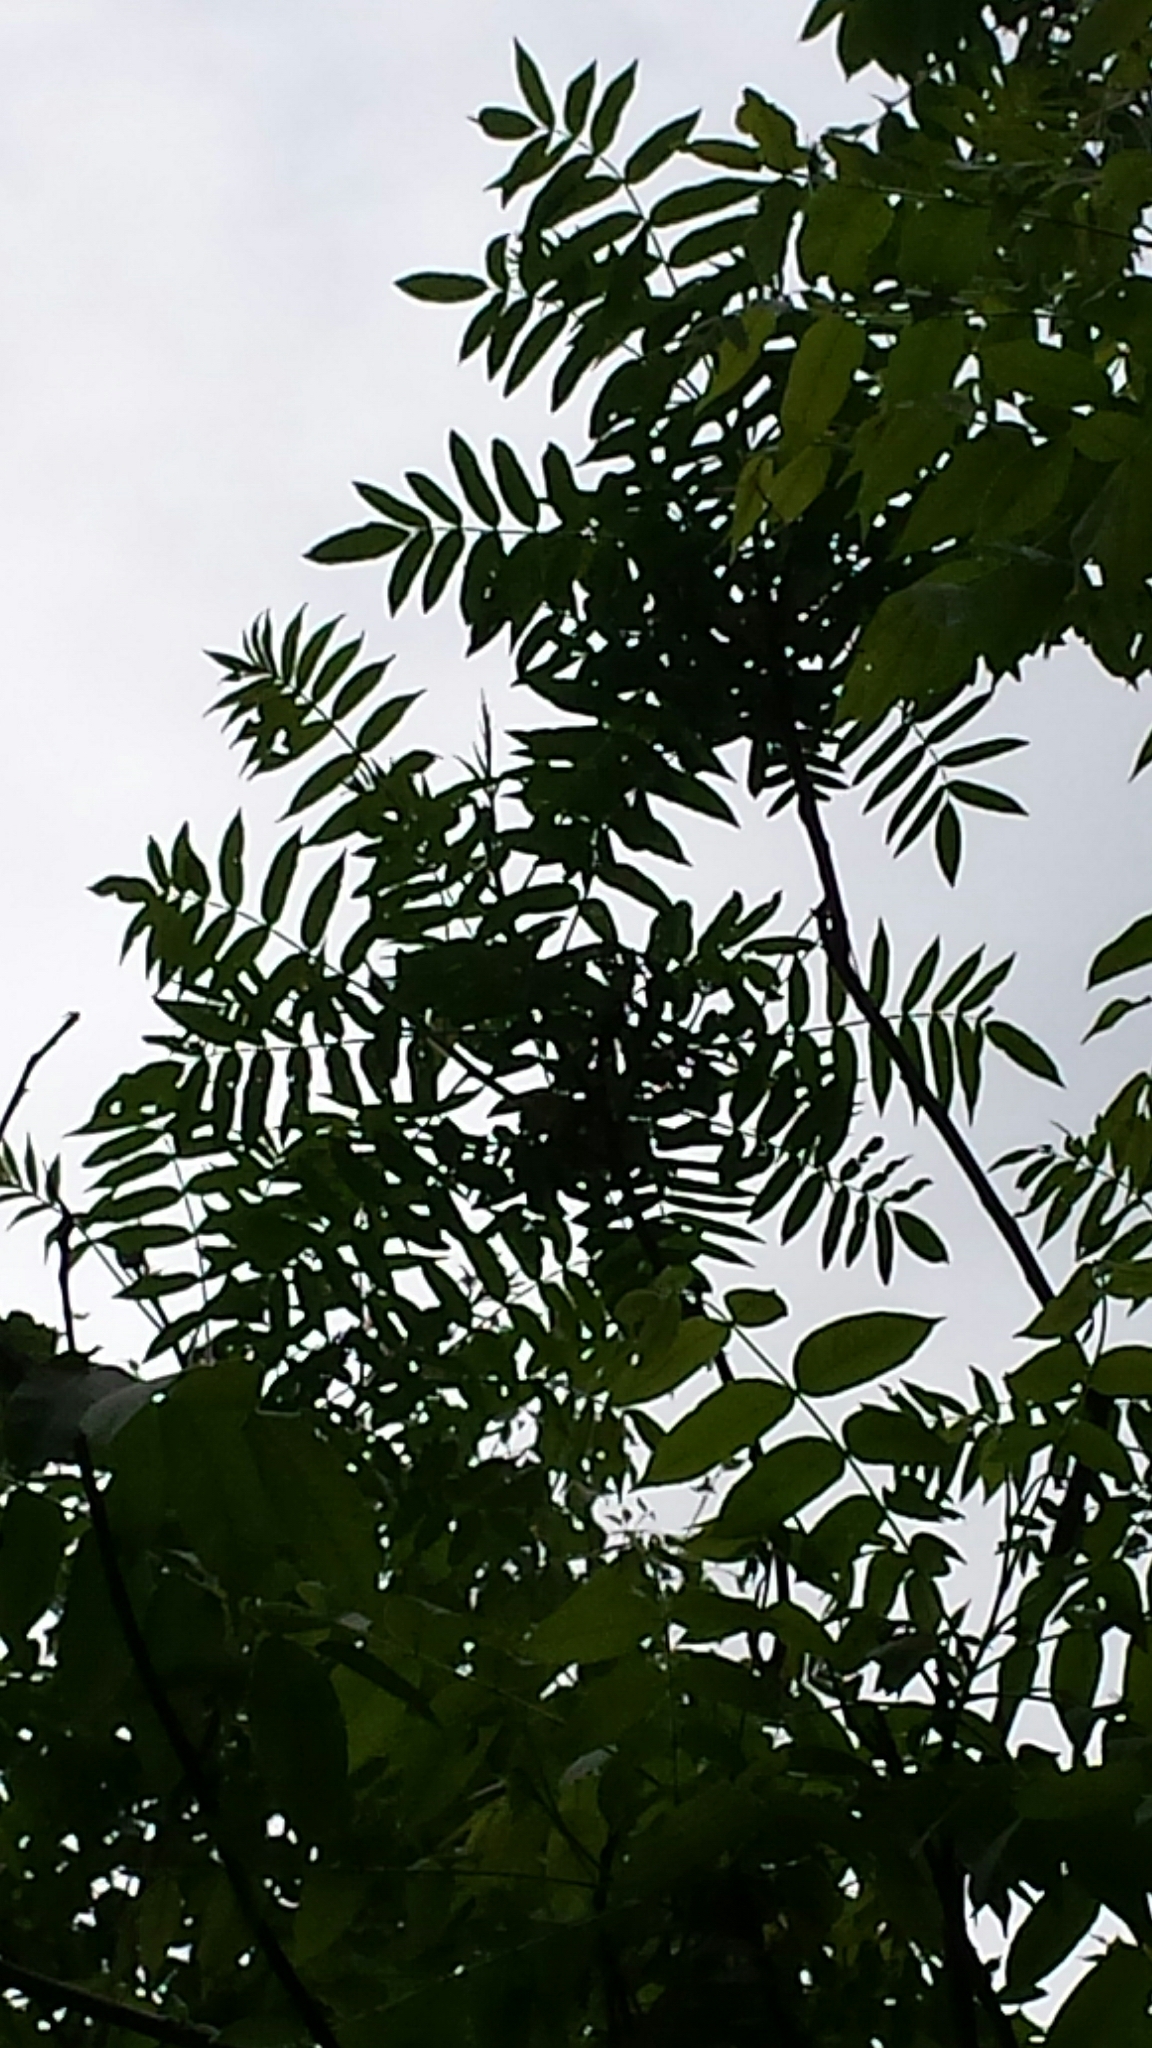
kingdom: Plantae
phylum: Tracheophyta
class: Magnoliopsida
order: Fagales
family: Juglandaceae
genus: Juglans
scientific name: Juglans cinerea
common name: Butternut
